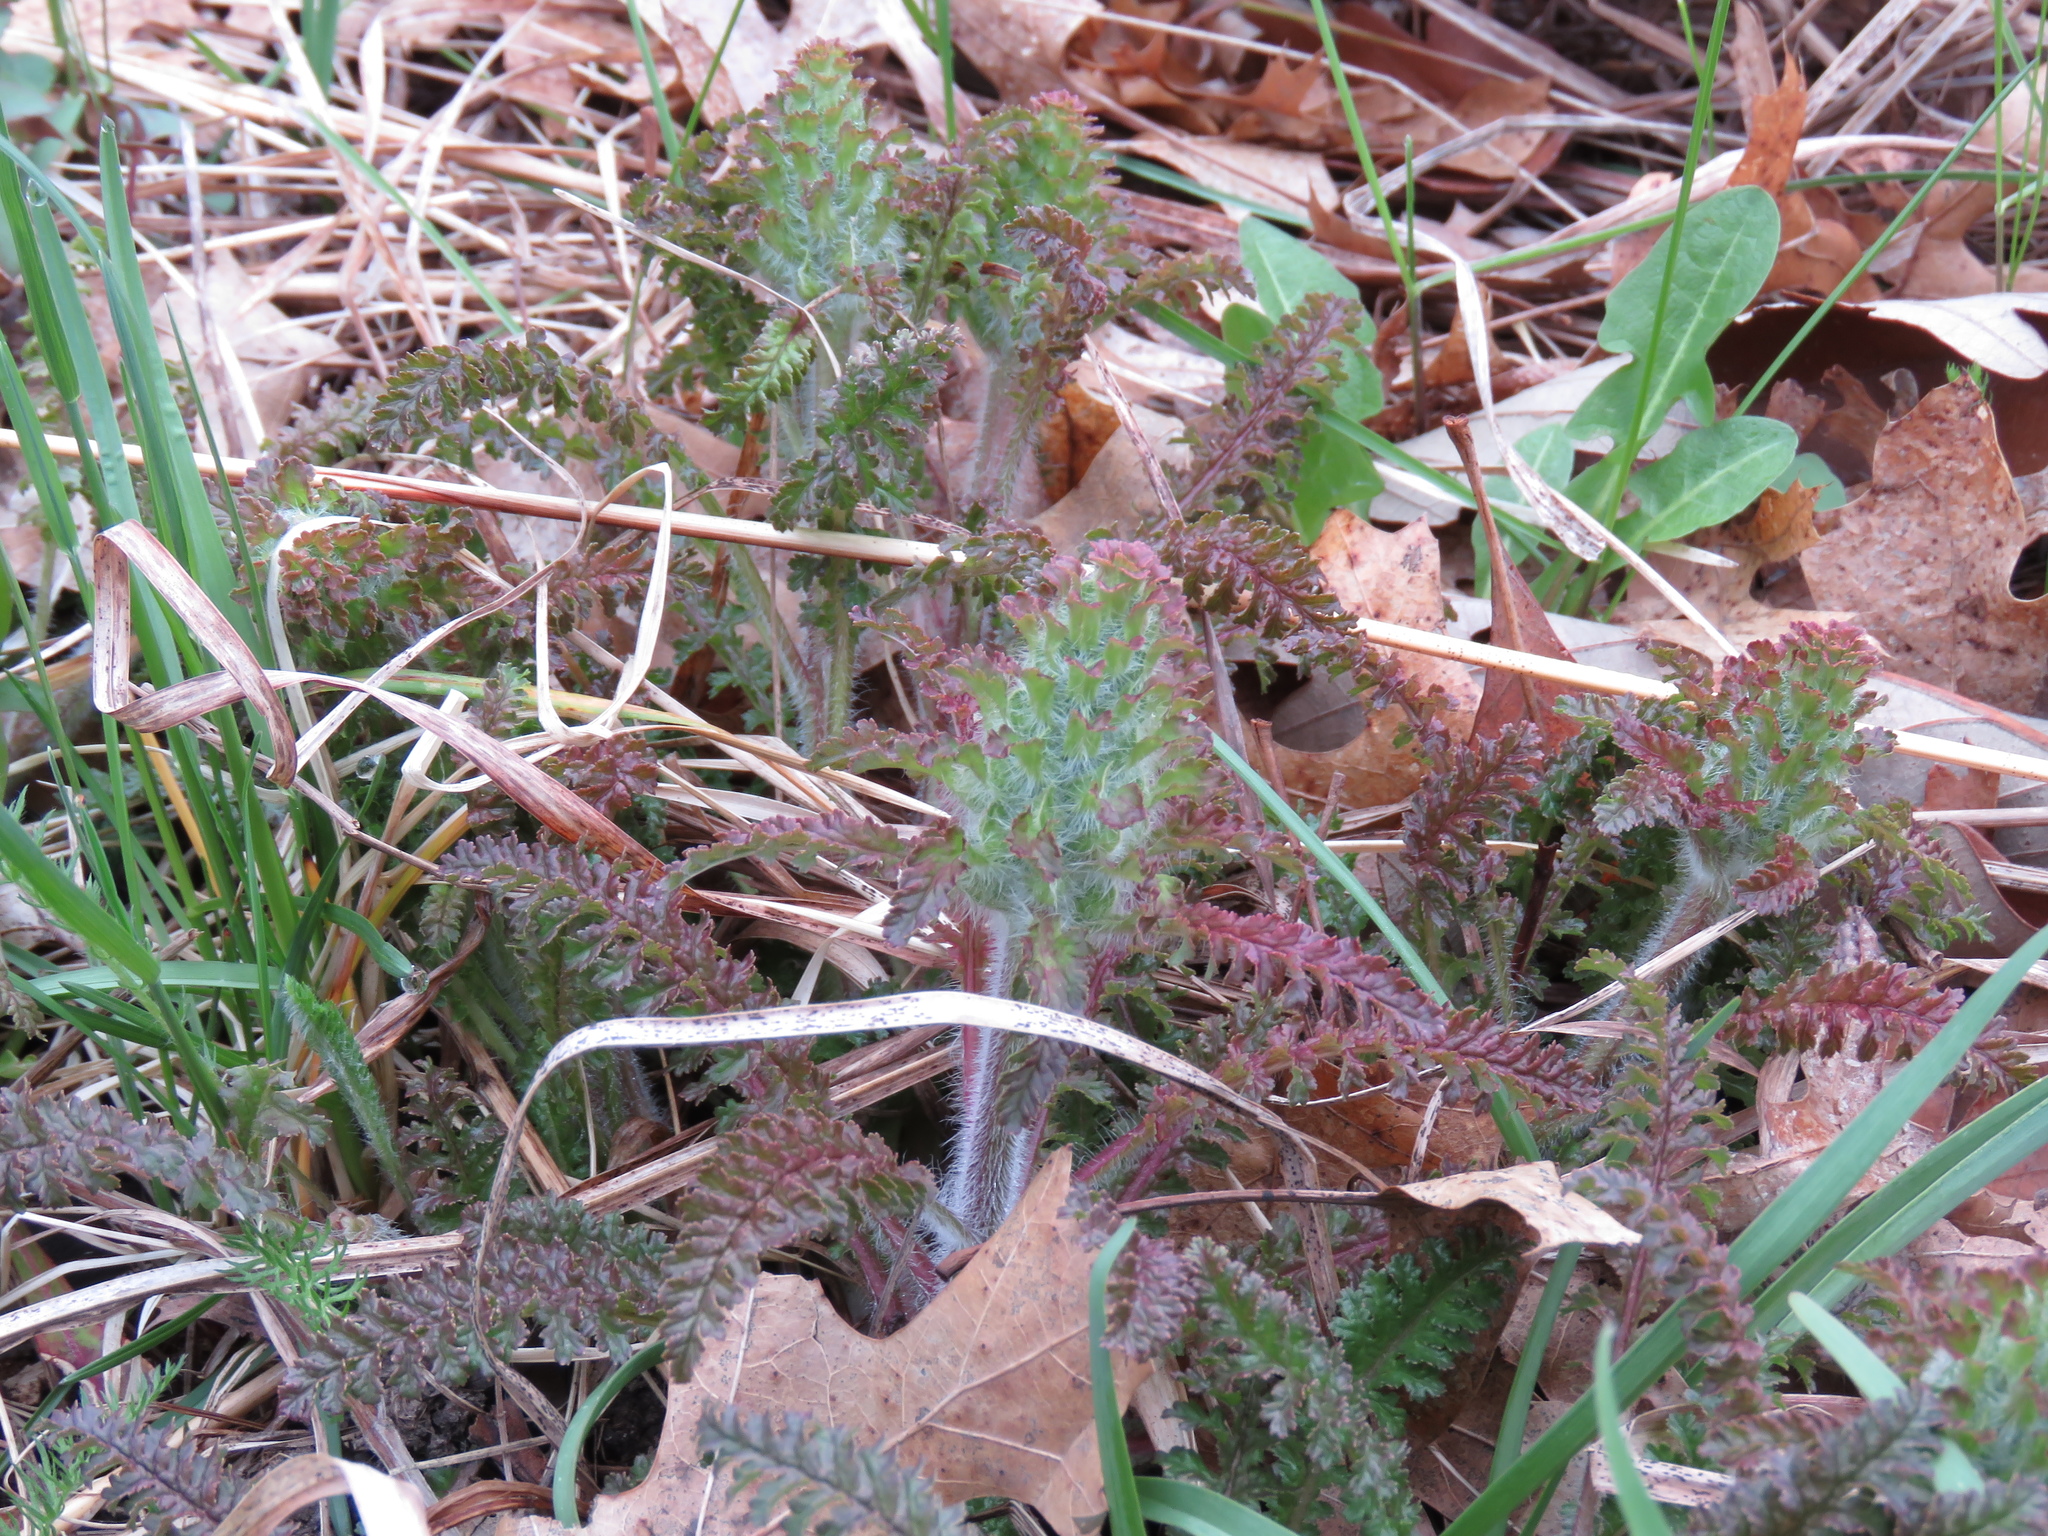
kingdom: Plantae
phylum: Tracheophyta
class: Magnoliopsida
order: Lamiales
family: Orobanchaceae
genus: Pedicularis
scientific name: Pedicularis canadensis
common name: Early lousewort
